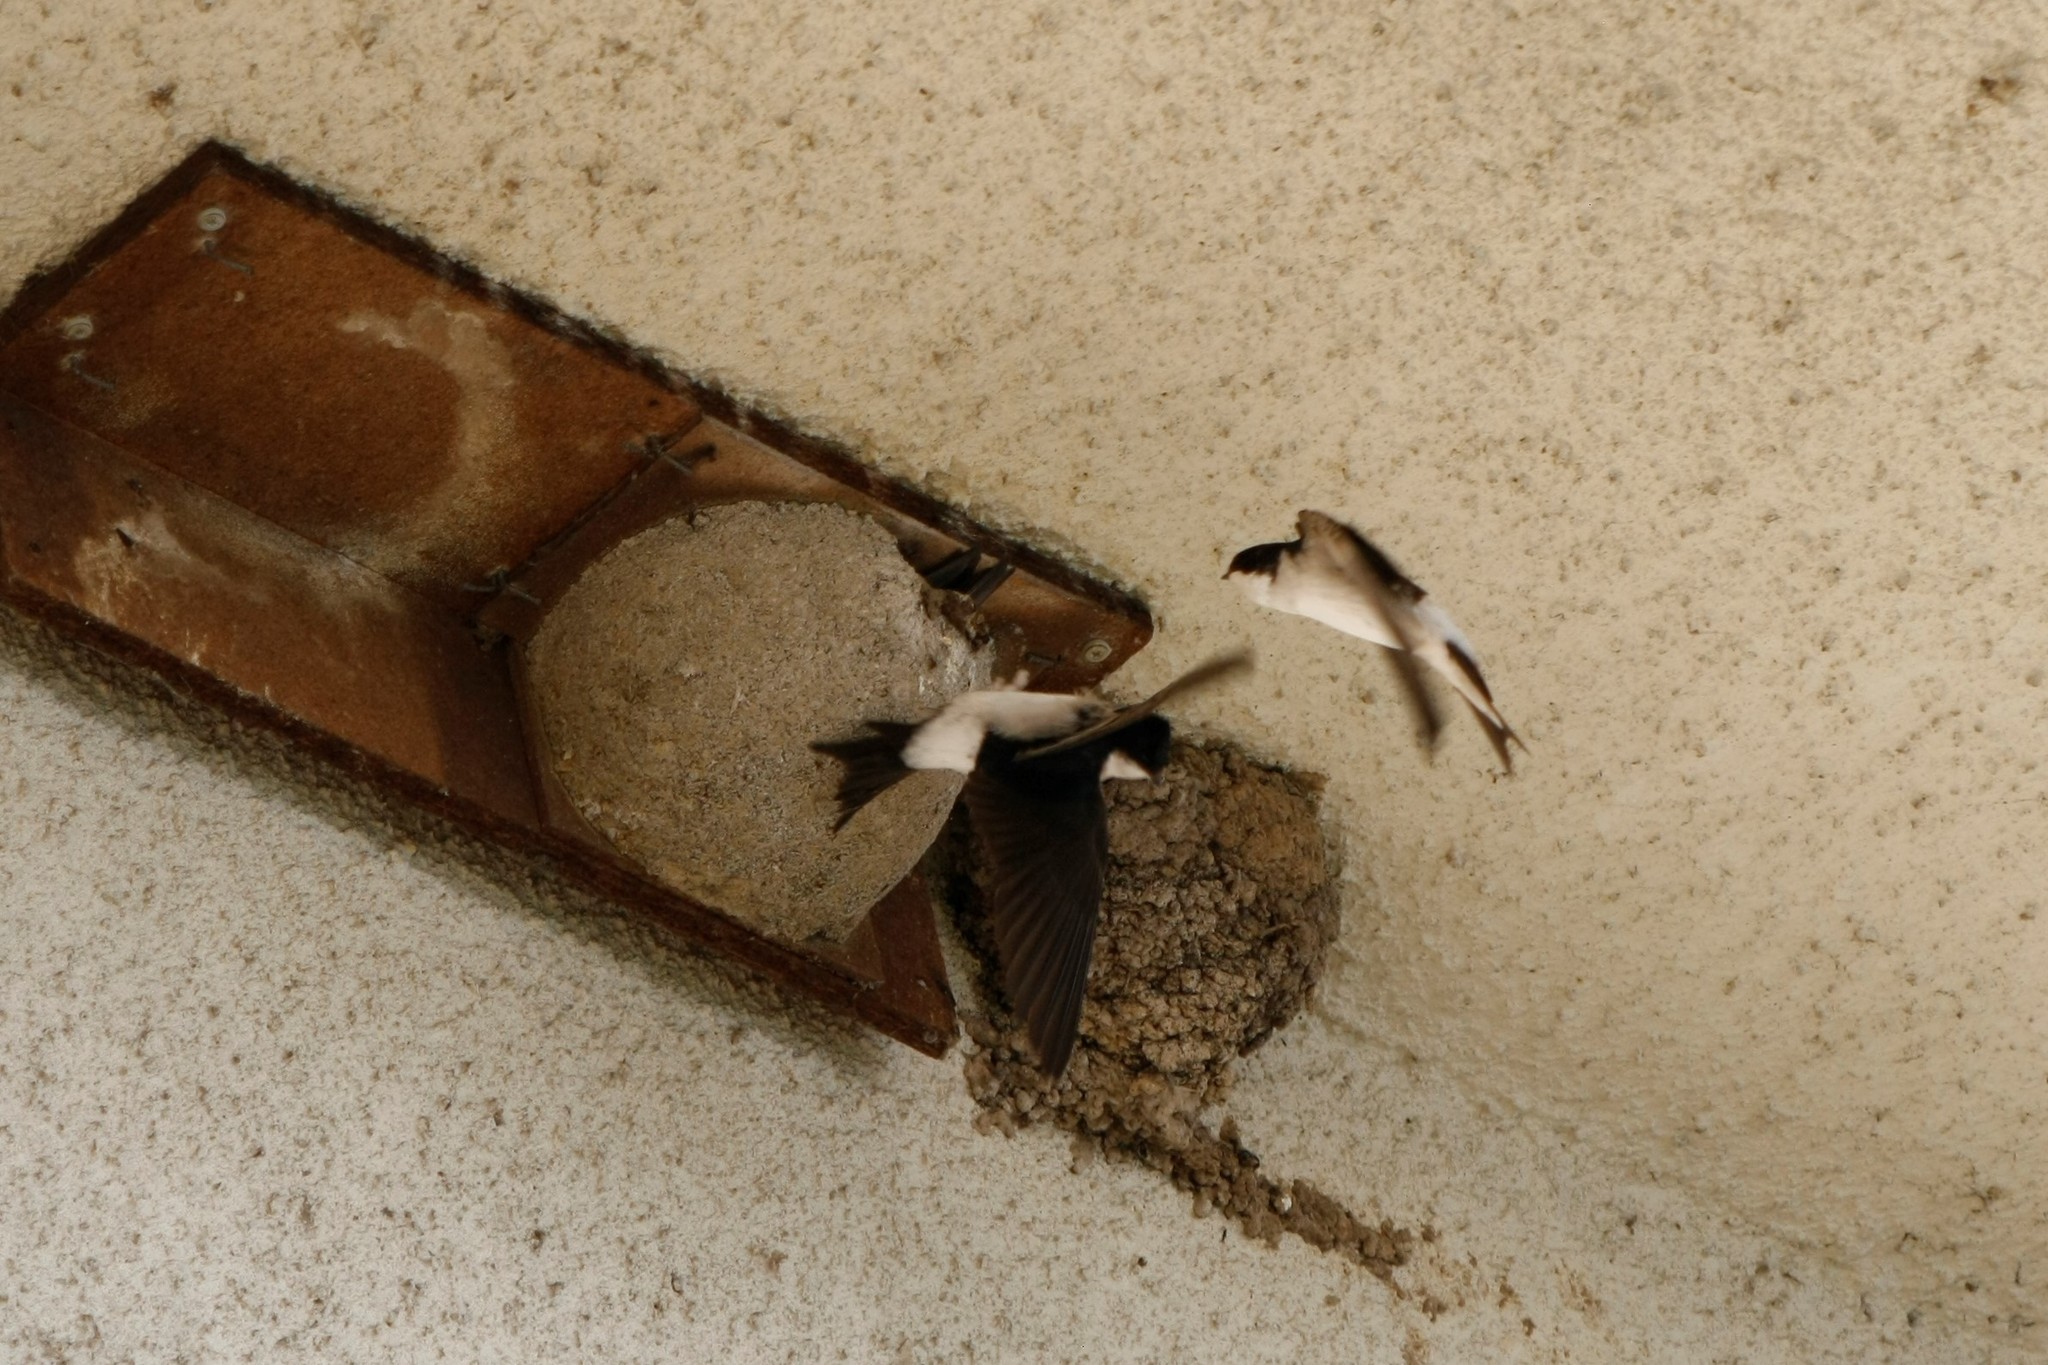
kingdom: Animalia
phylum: Chordata
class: Aves
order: Passeriformes
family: Hirundinidae
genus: Delichon
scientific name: Delichon urbicum
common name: Common house martin
